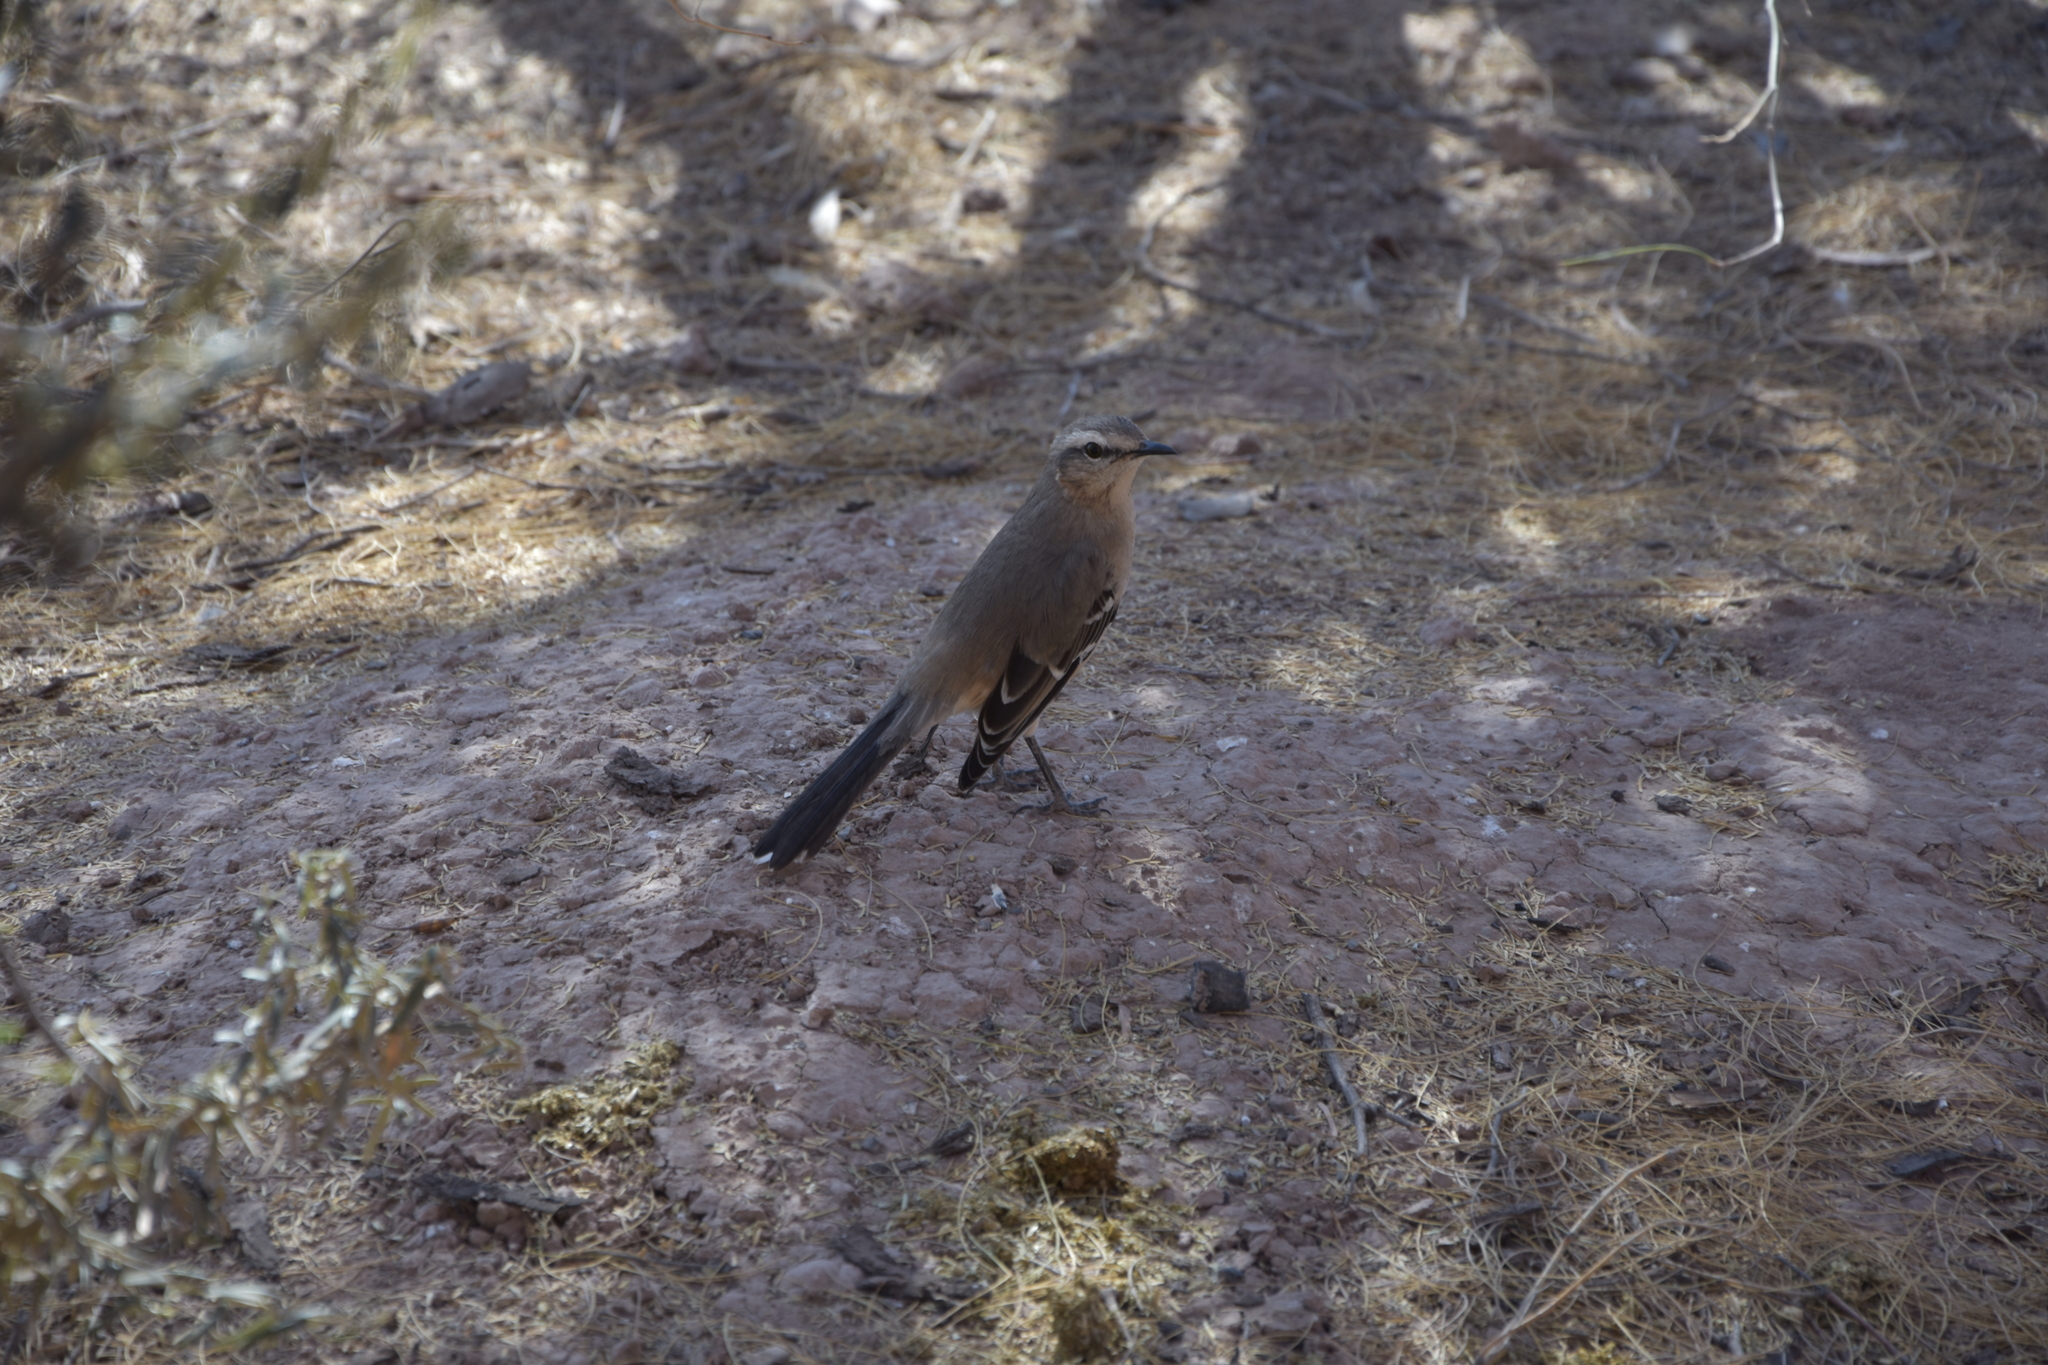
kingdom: Animalia
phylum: Chordata
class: Aves
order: Passeriformes
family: Mimidae
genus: Mimus
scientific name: Mimus patagonicus
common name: Patagonian mockingbird
